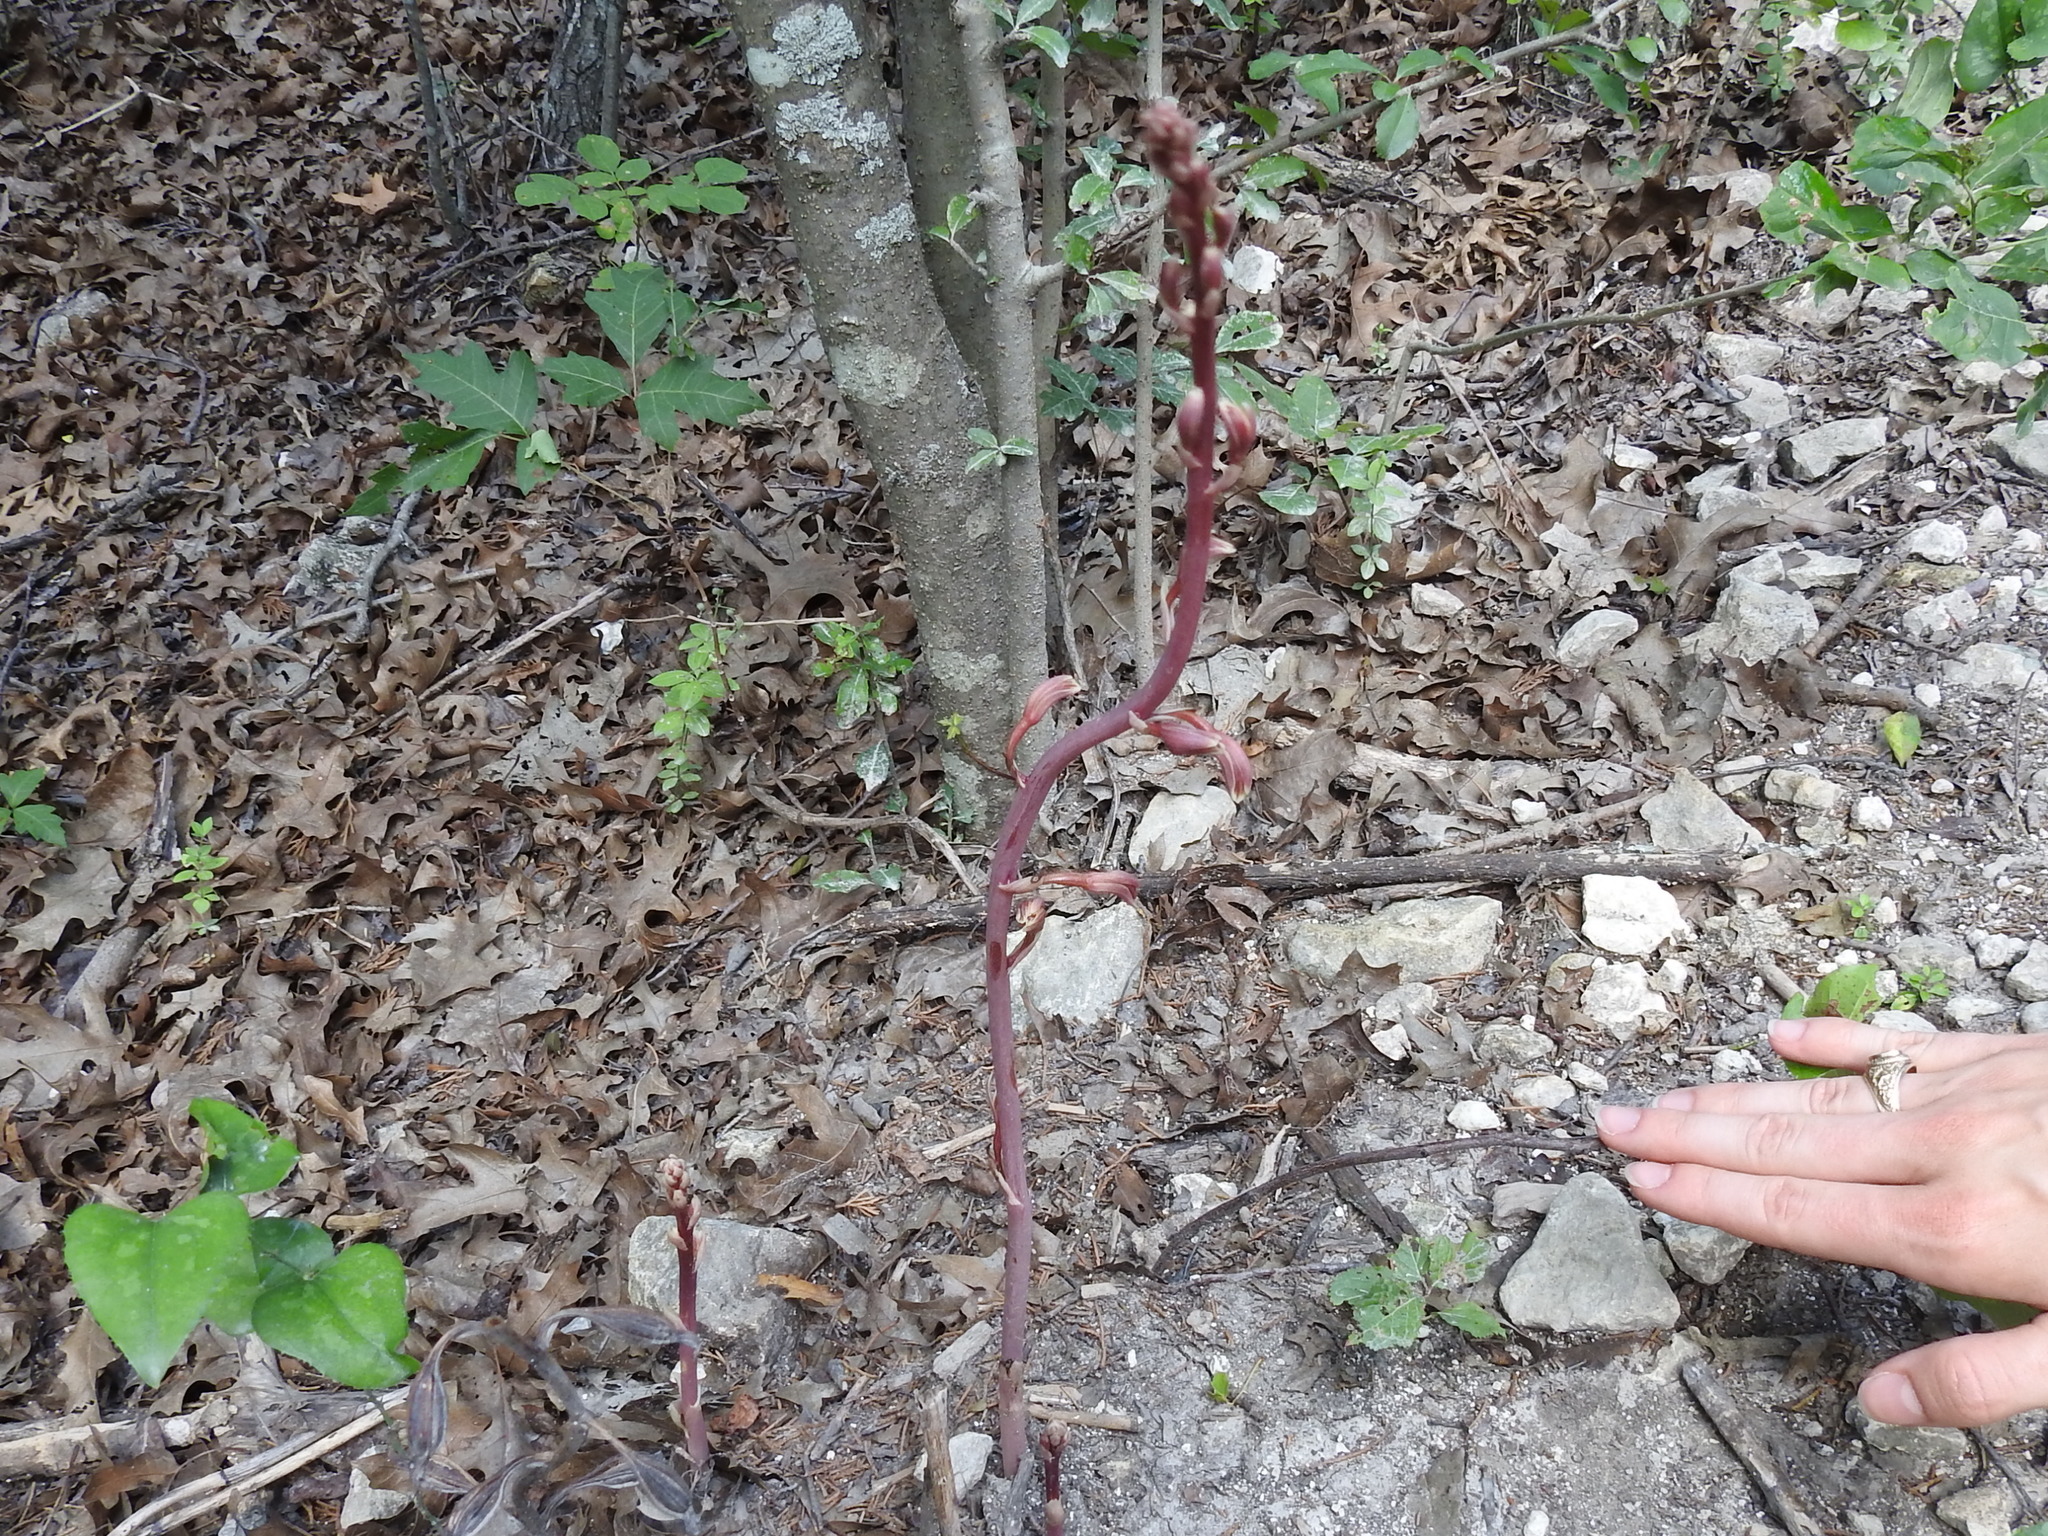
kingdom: Plantae
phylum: Tracheophyta
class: Liliopsida
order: Asparagales
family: Orchidaceae
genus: Bletia
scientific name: Bletia arizonica
